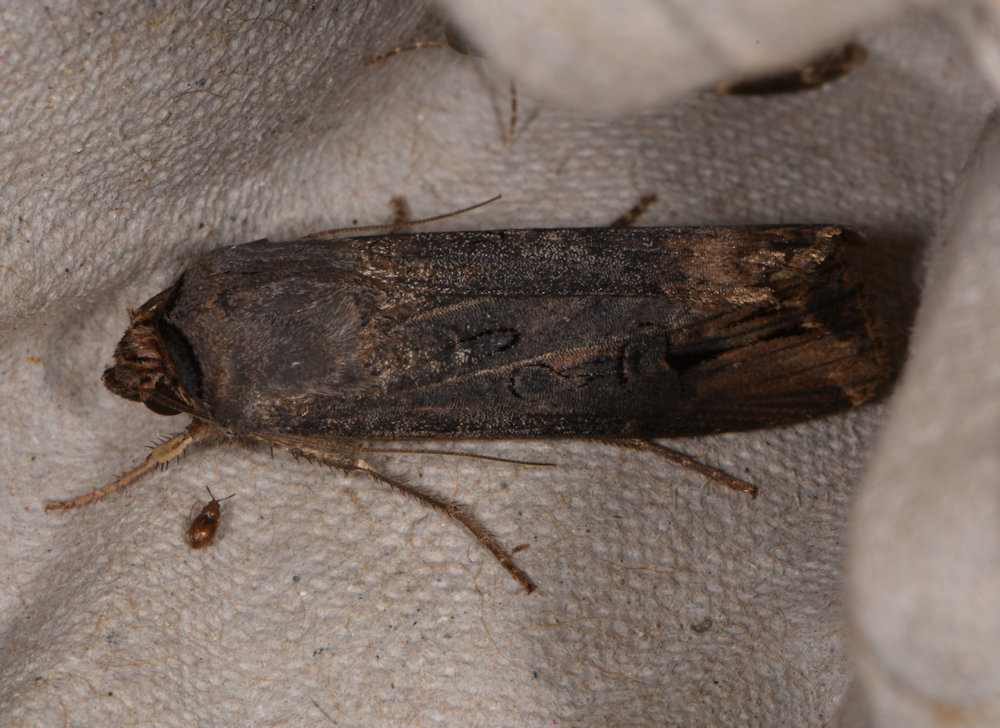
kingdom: Animalia
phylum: Arthropoda
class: Insecta
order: Lepidoptera
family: Noctuidae
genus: Agrotis
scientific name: Agrotis ipsilon
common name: Dark sword-grass
